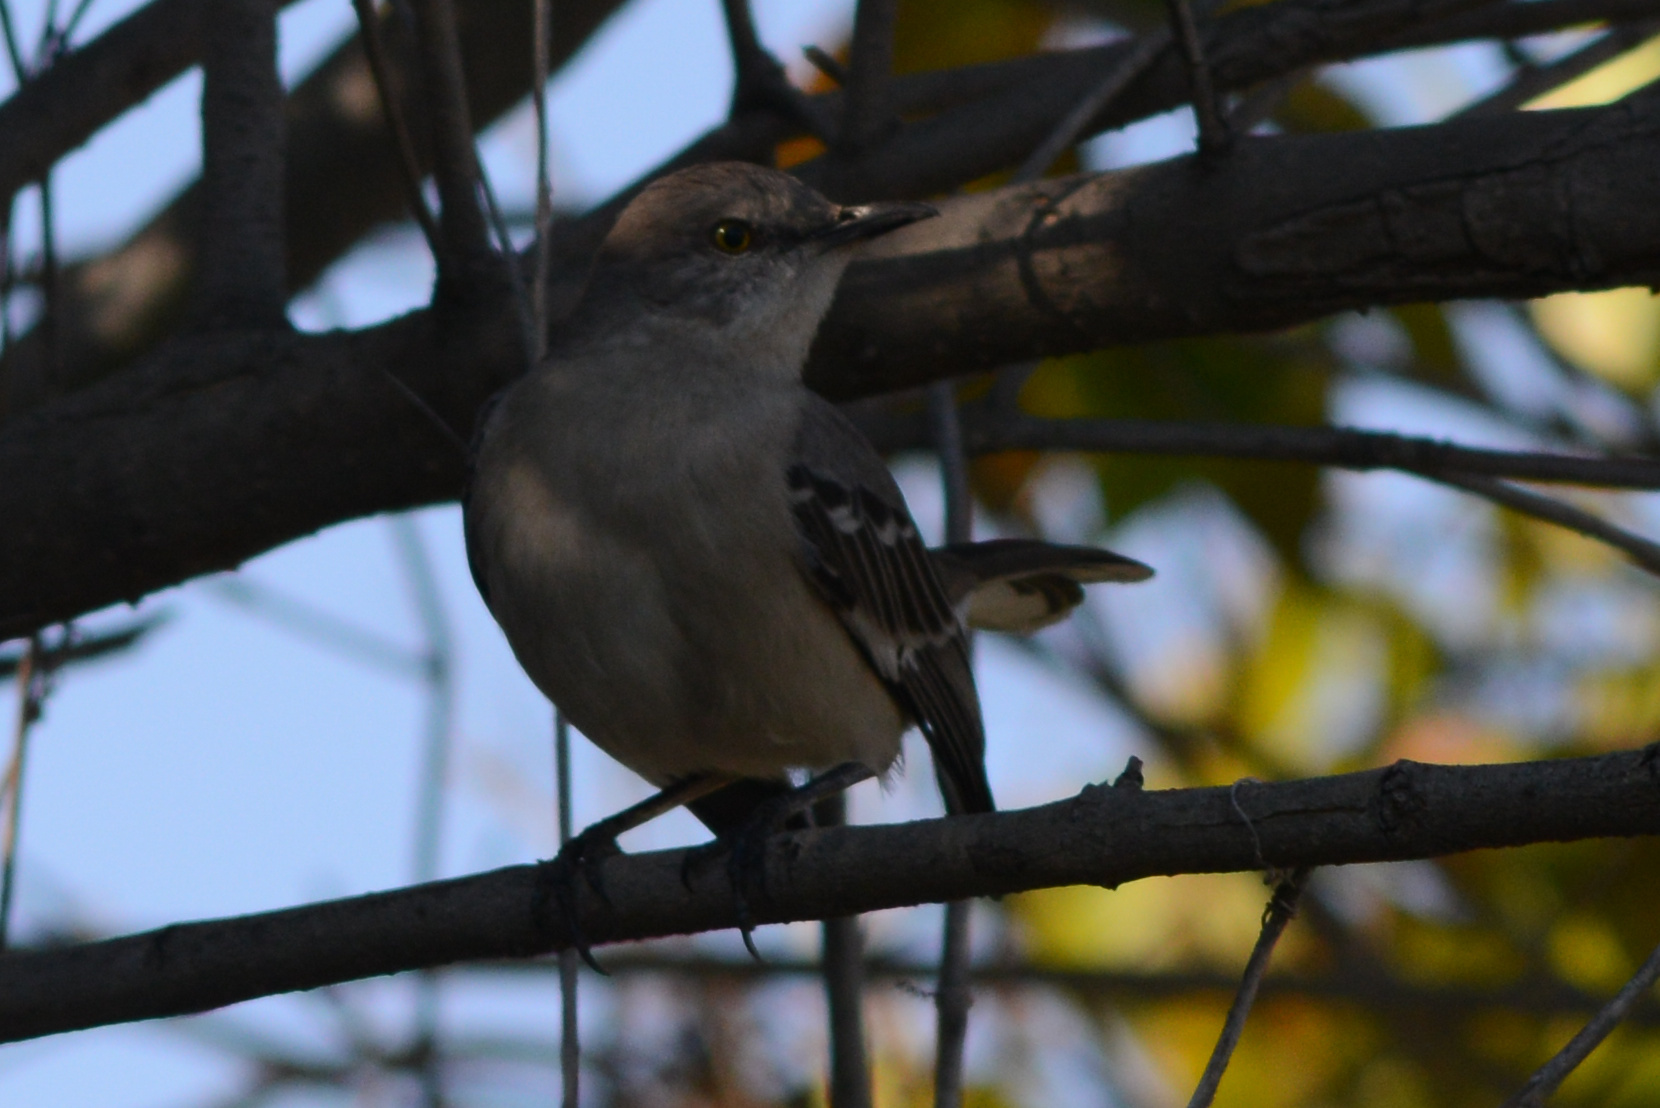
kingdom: Animalia
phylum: Chordata
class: Aves
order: Passeriformes
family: Mimidae
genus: Mimus
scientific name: Mimus polyglottos
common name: Northern mockingbird
